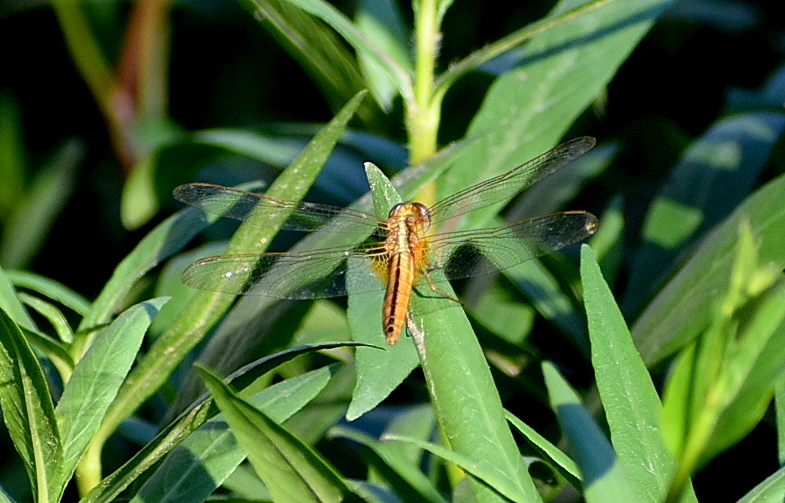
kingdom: Animalia
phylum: Arthropoda
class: Insecta
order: Odonata
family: Libellulidae
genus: Crocothemis
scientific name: Crocothemis servilia
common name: Scarlet skimmer
